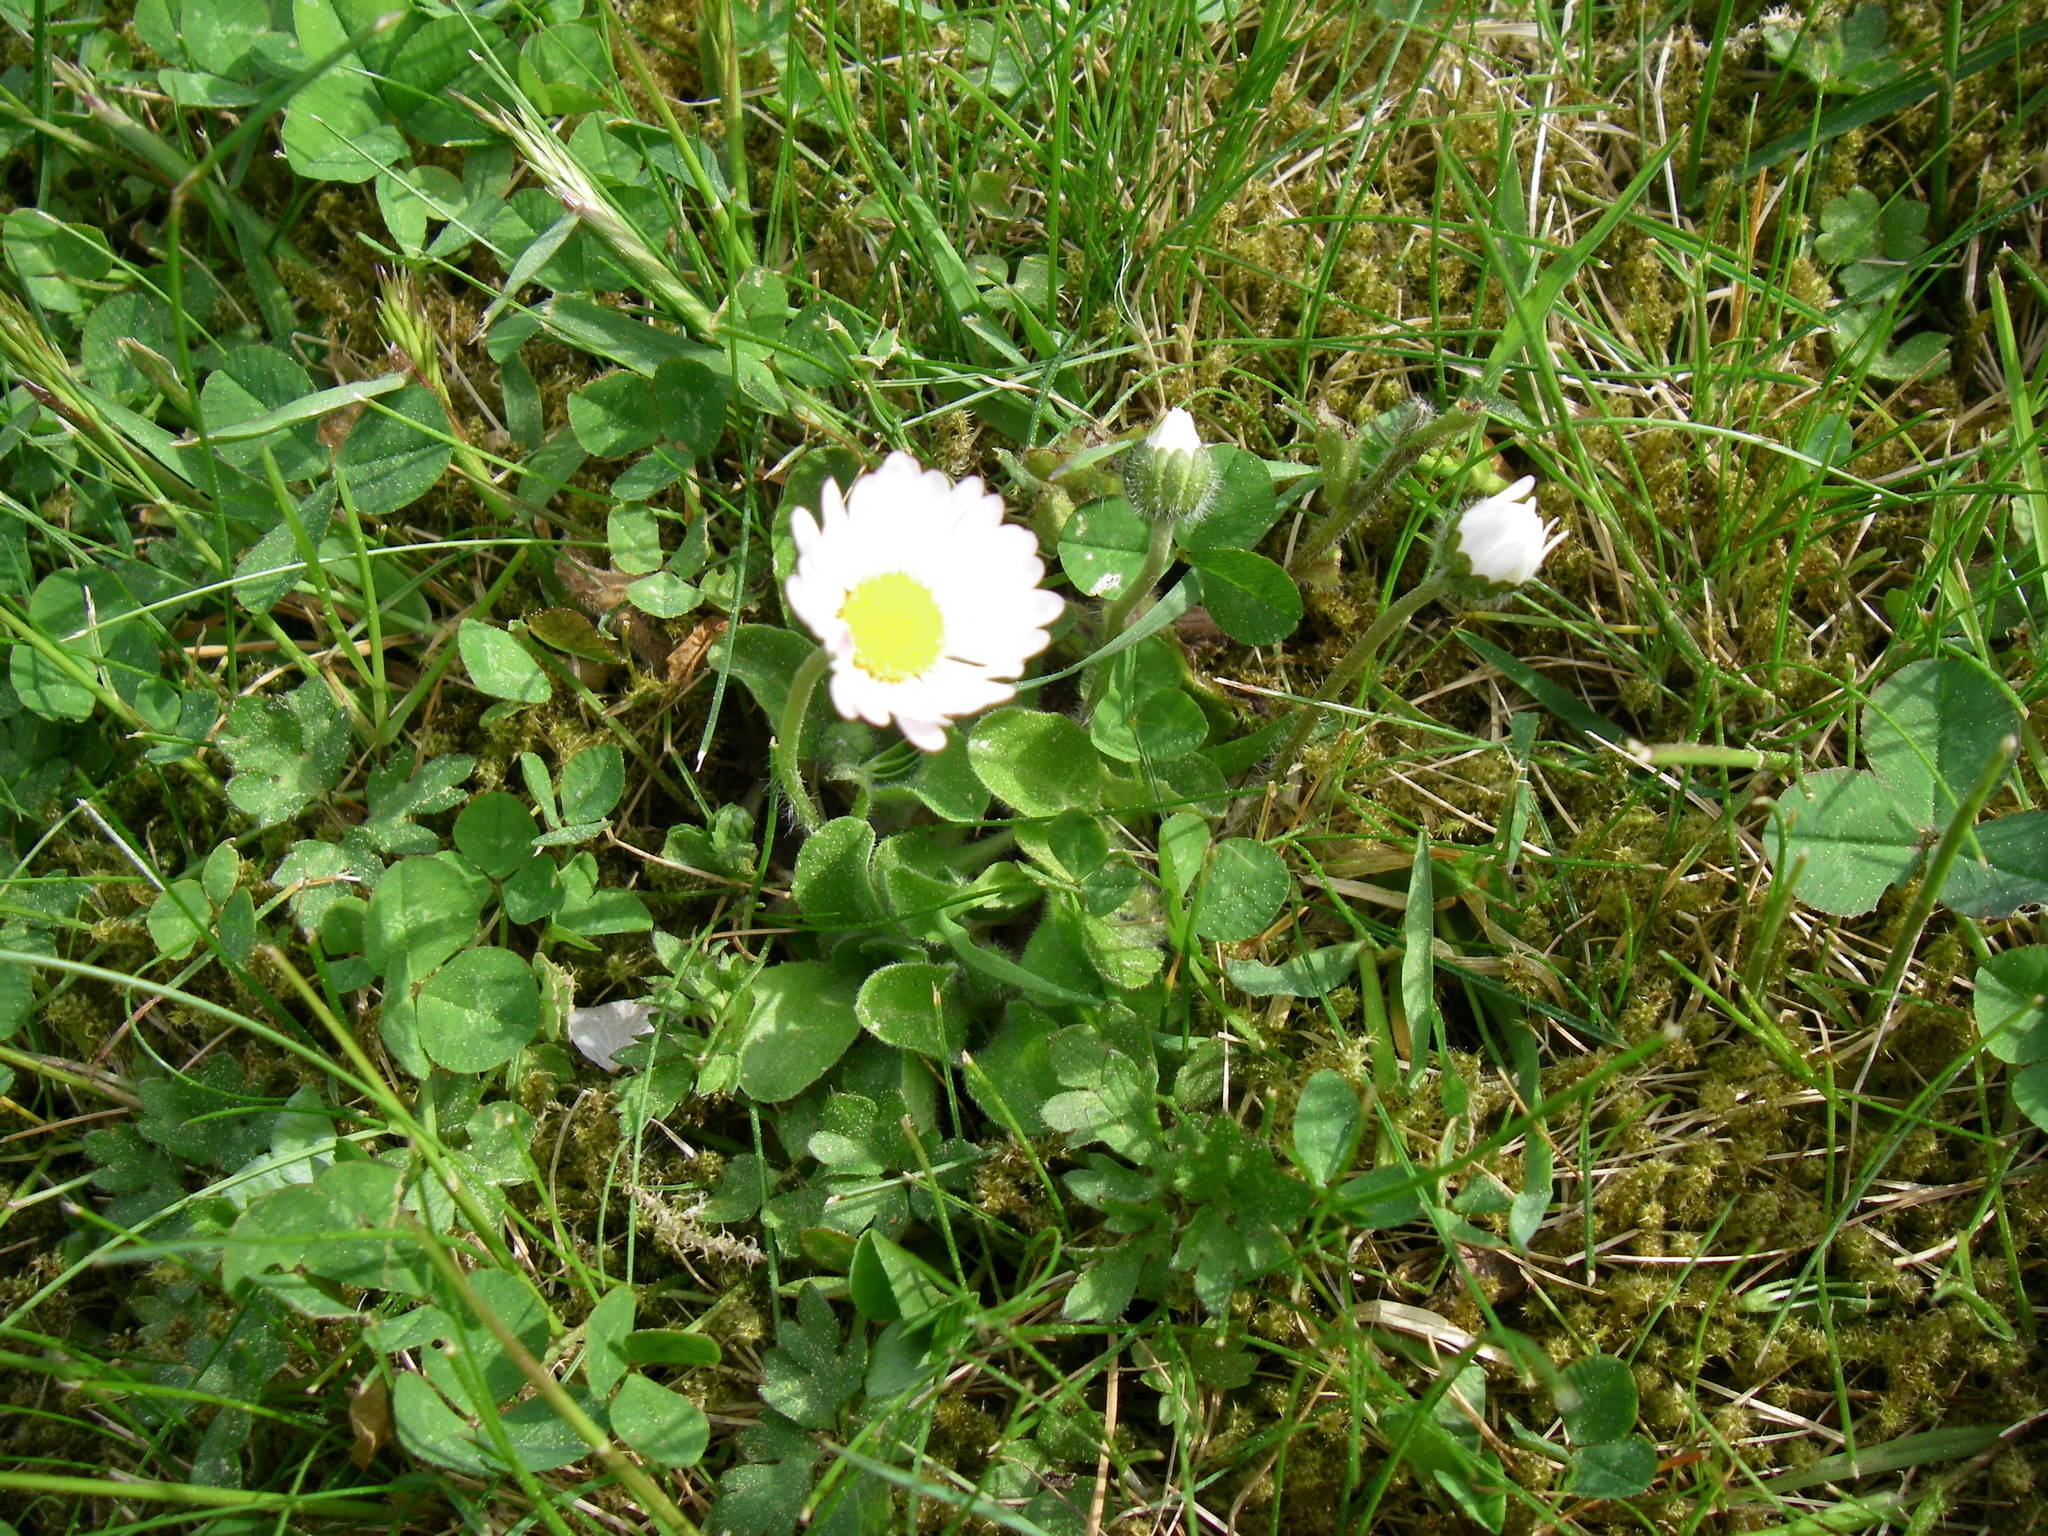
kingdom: Plantae
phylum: Tracheophyta
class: Magnoliopsida
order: Asterales
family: Asteraceae
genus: Bellis
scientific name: Bellis perennis
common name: Lawndaisy
